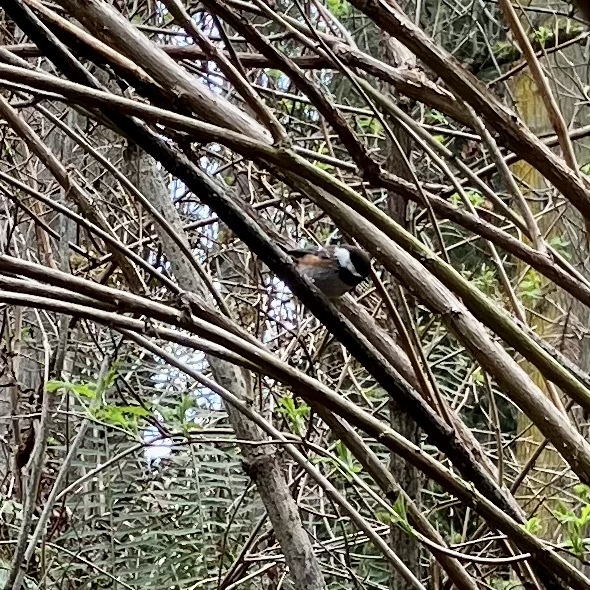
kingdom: Animalia
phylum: Chordata
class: Aves
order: Passeriformes
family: Paridae
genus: Poecile
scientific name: Poecile rufescens
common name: Chestnut-backed chickadee
